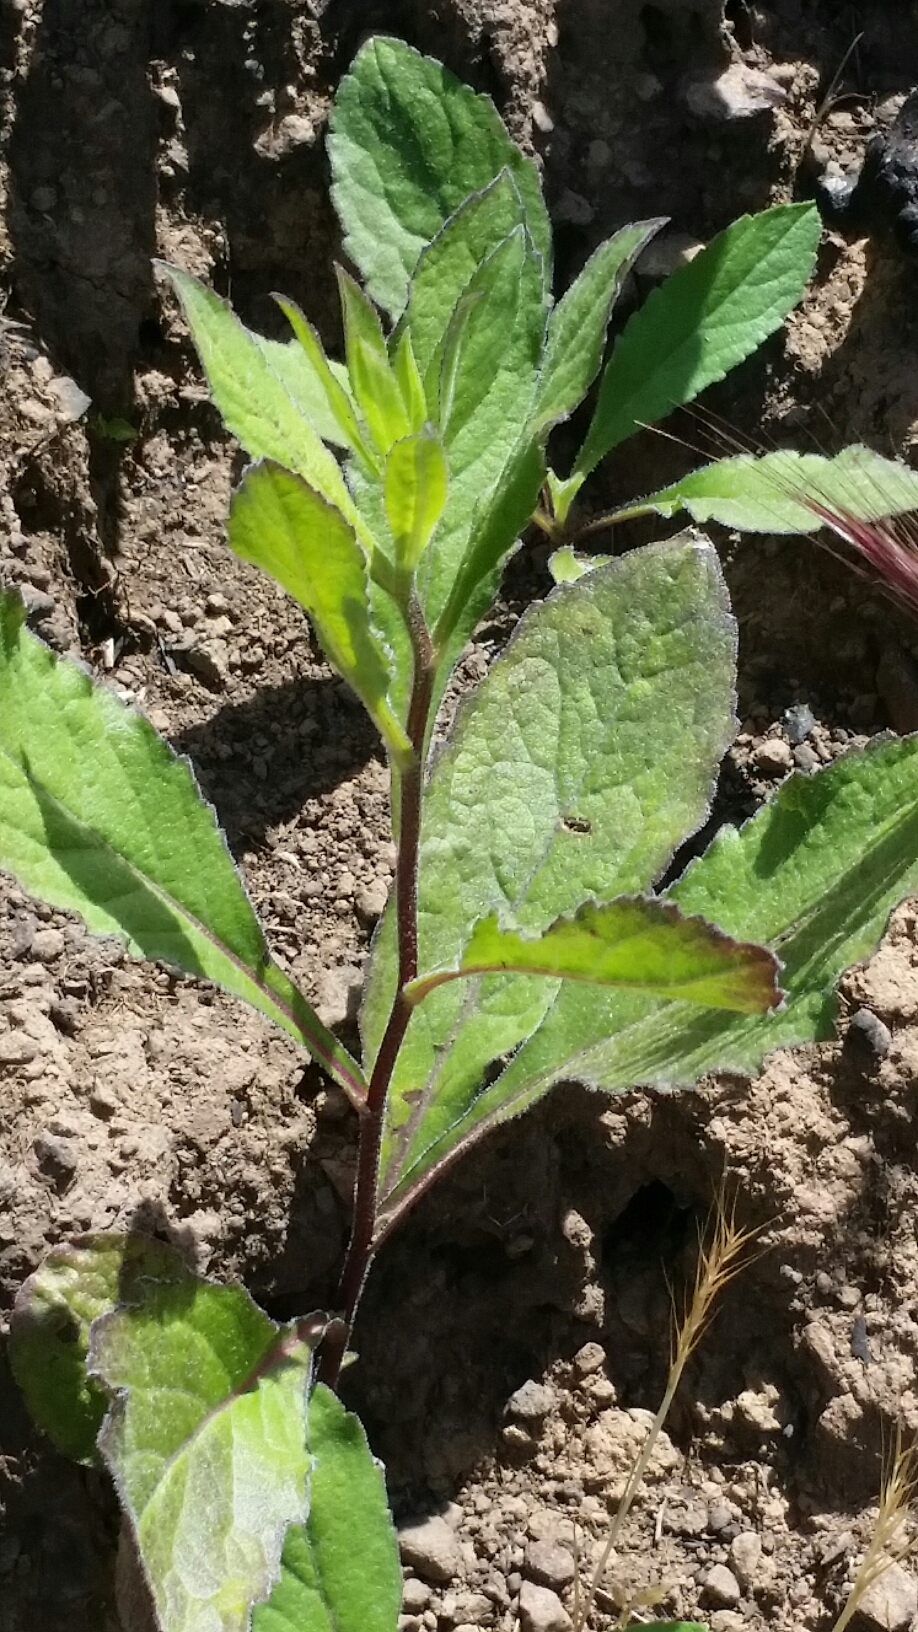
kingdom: Plantae
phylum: Tracheophyta
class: Magnoliopsida
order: Asterales
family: Asteraceae
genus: Eurybia
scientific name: Eurybia radulina
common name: Rough-leaved aster
